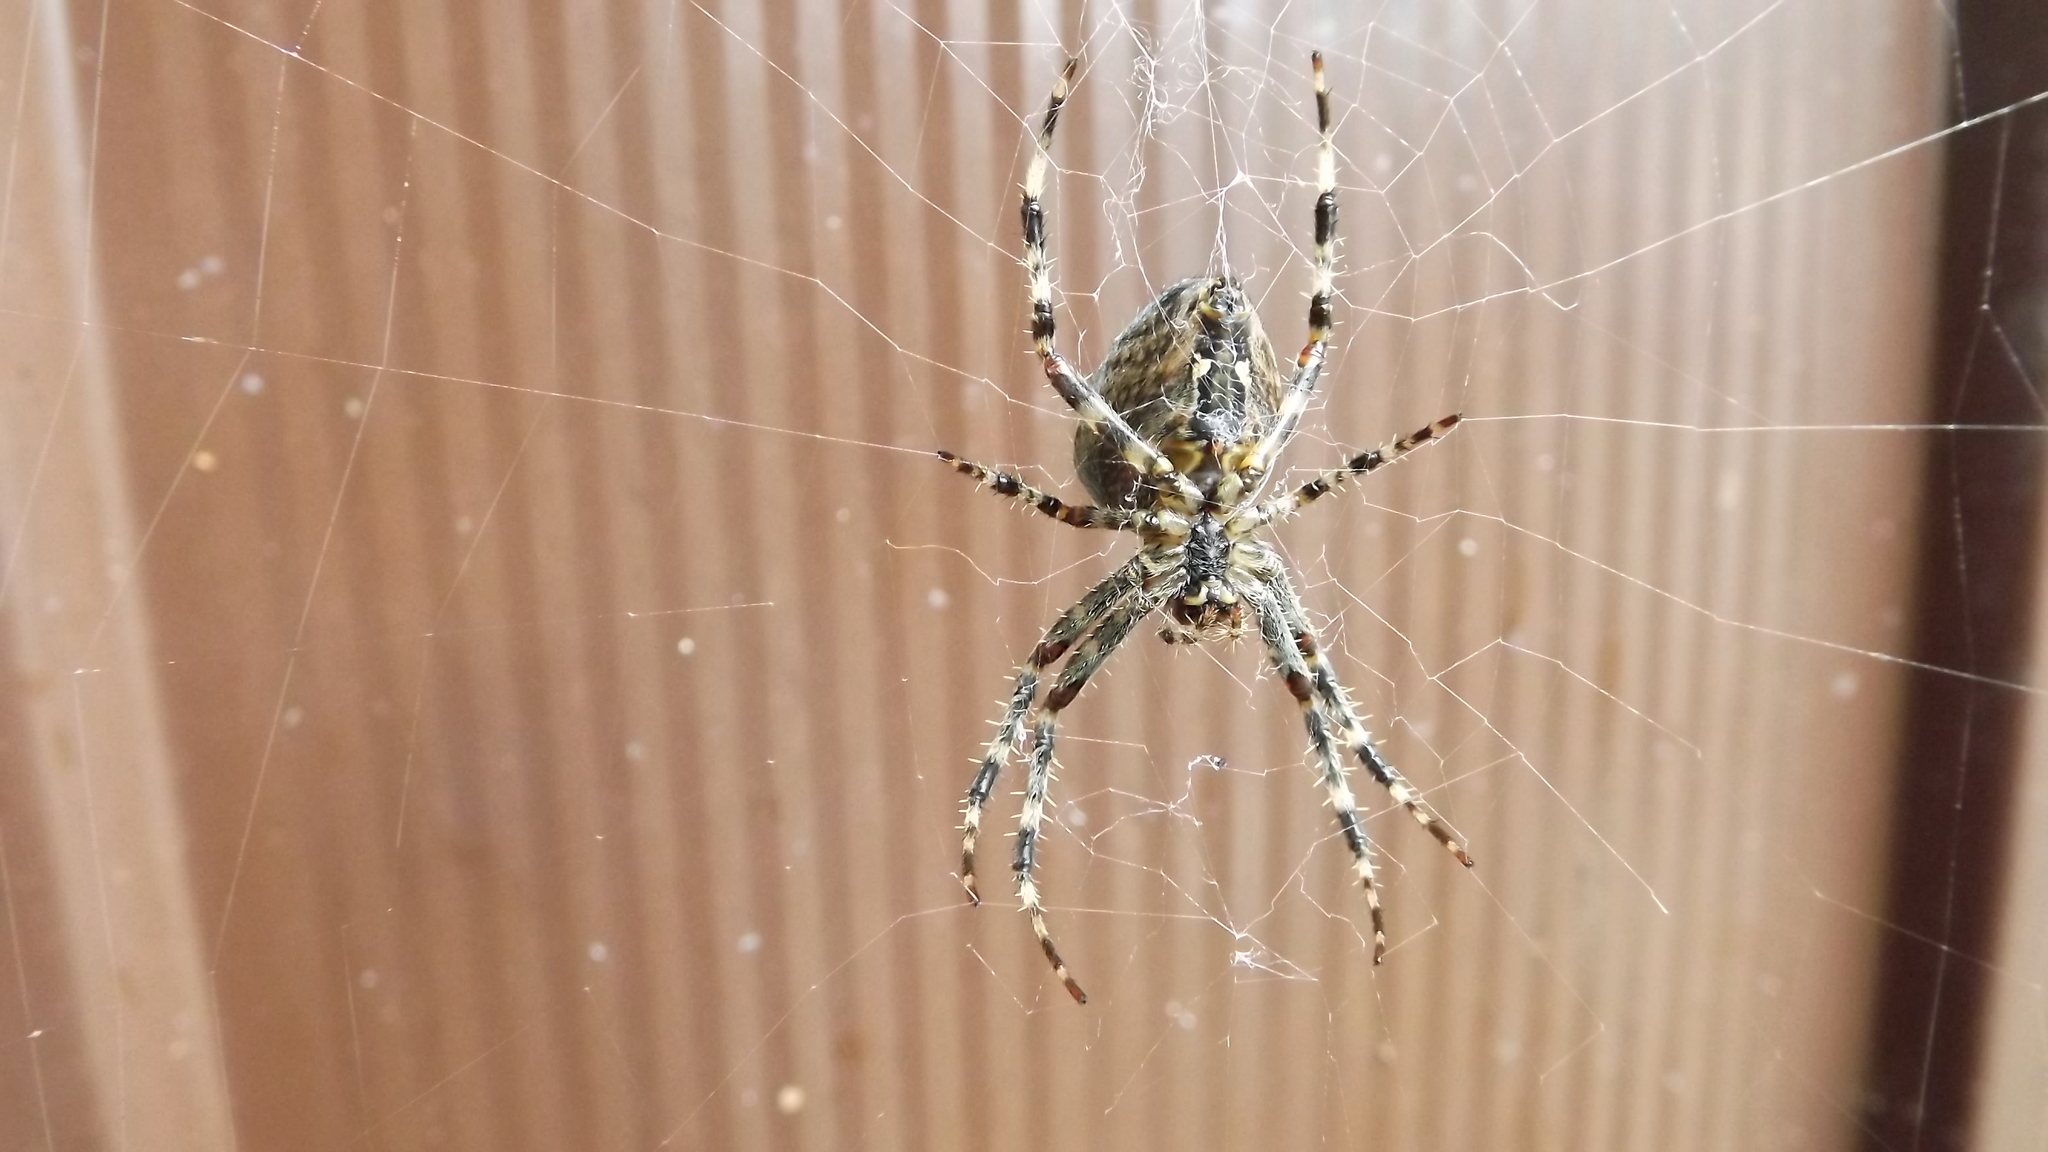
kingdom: Animalia
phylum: Arthropoda
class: Arachnida
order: Araneae
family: Araneidae
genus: Araneus
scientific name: Araneus diadematus
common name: Cross orbweaver
